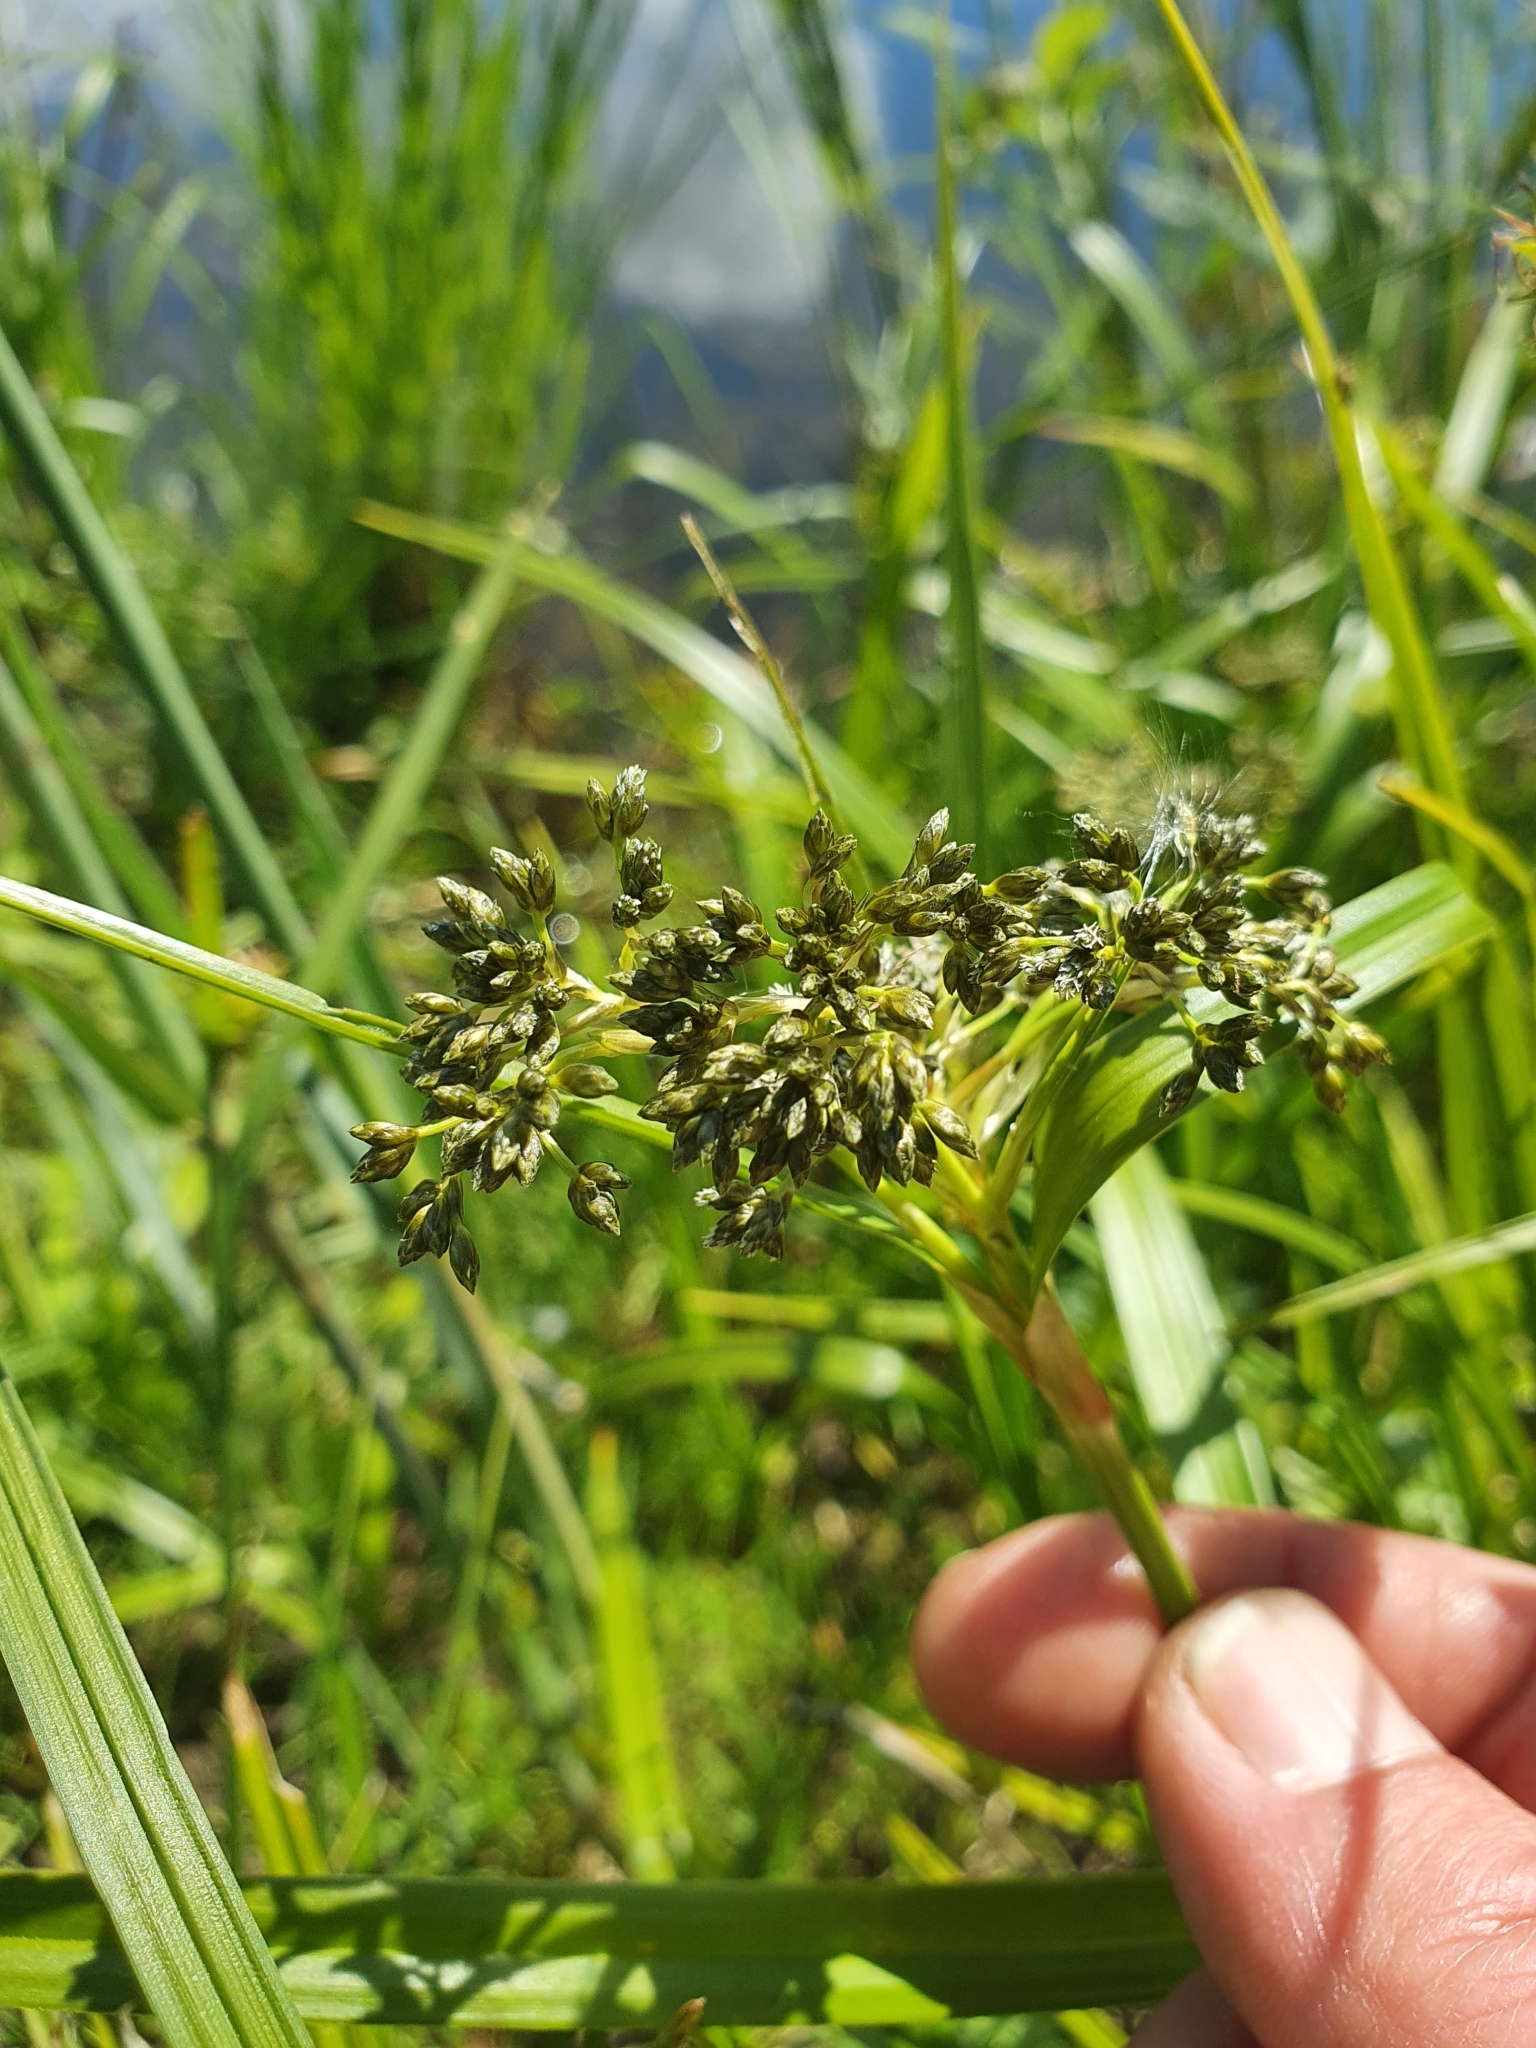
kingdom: Plantae
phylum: Tracheophyta
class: Liliopsida
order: Poales
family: Cyperaceae
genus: Scirpus
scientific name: Scirpus sylvaticus
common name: Wood club-rush
